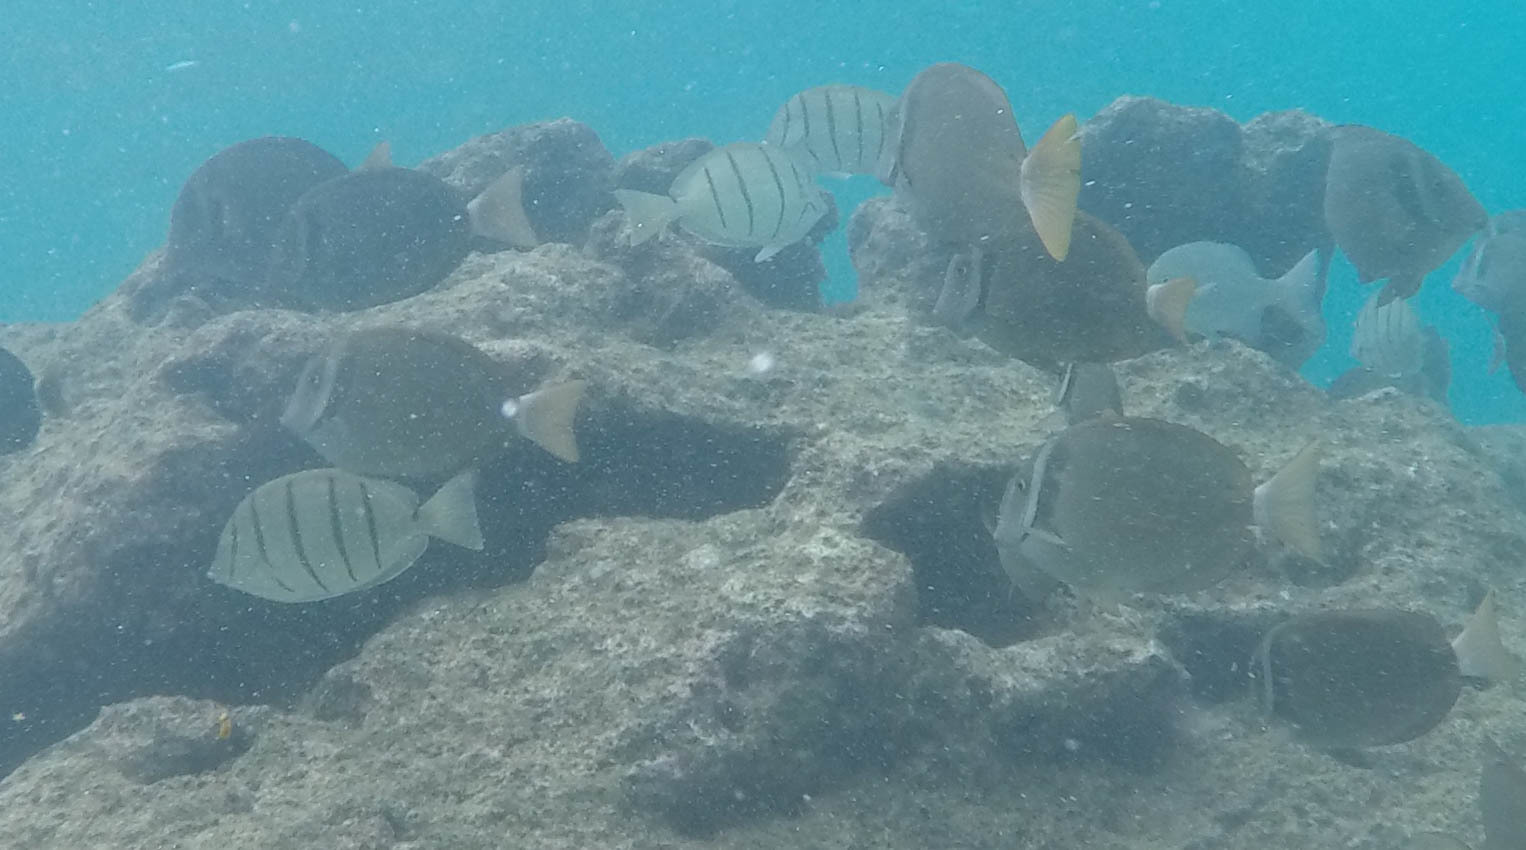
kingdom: Animalia
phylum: Chordata
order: Perciformes
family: Acanthuridae
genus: Acanthurus
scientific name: Acanthurus triostegus
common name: Convict surgeonfish
